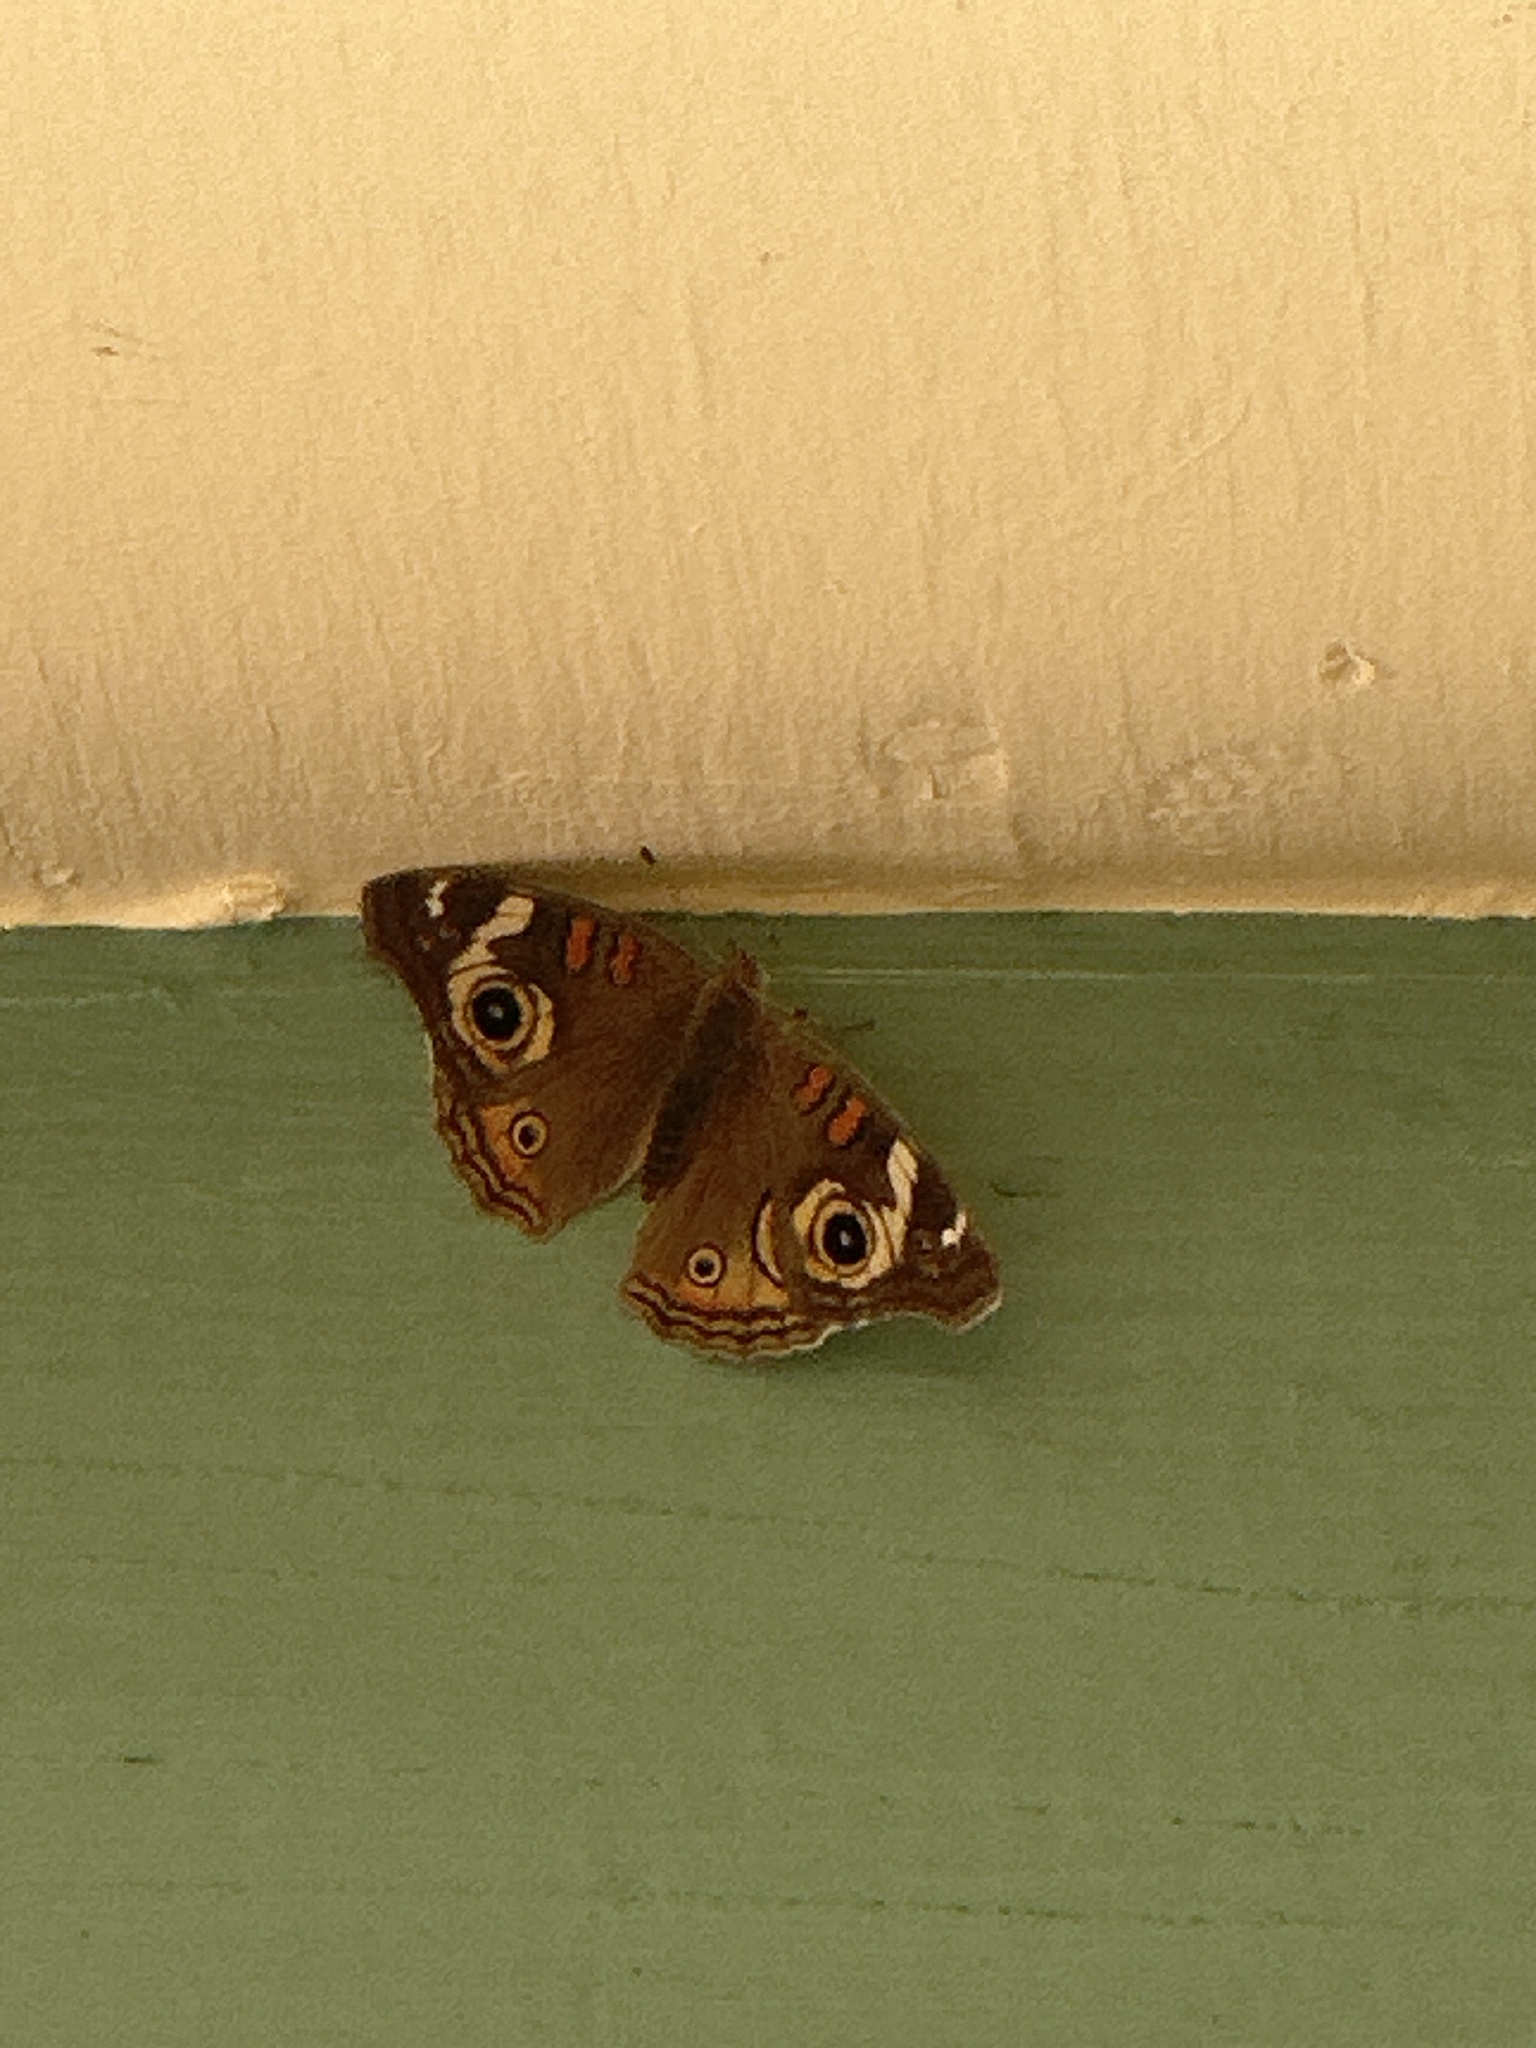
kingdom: Animalia
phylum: Arthropoda
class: Insecta
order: Lepidoptera
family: Nymphalidae
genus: Junonia
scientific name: Junonia grisea
